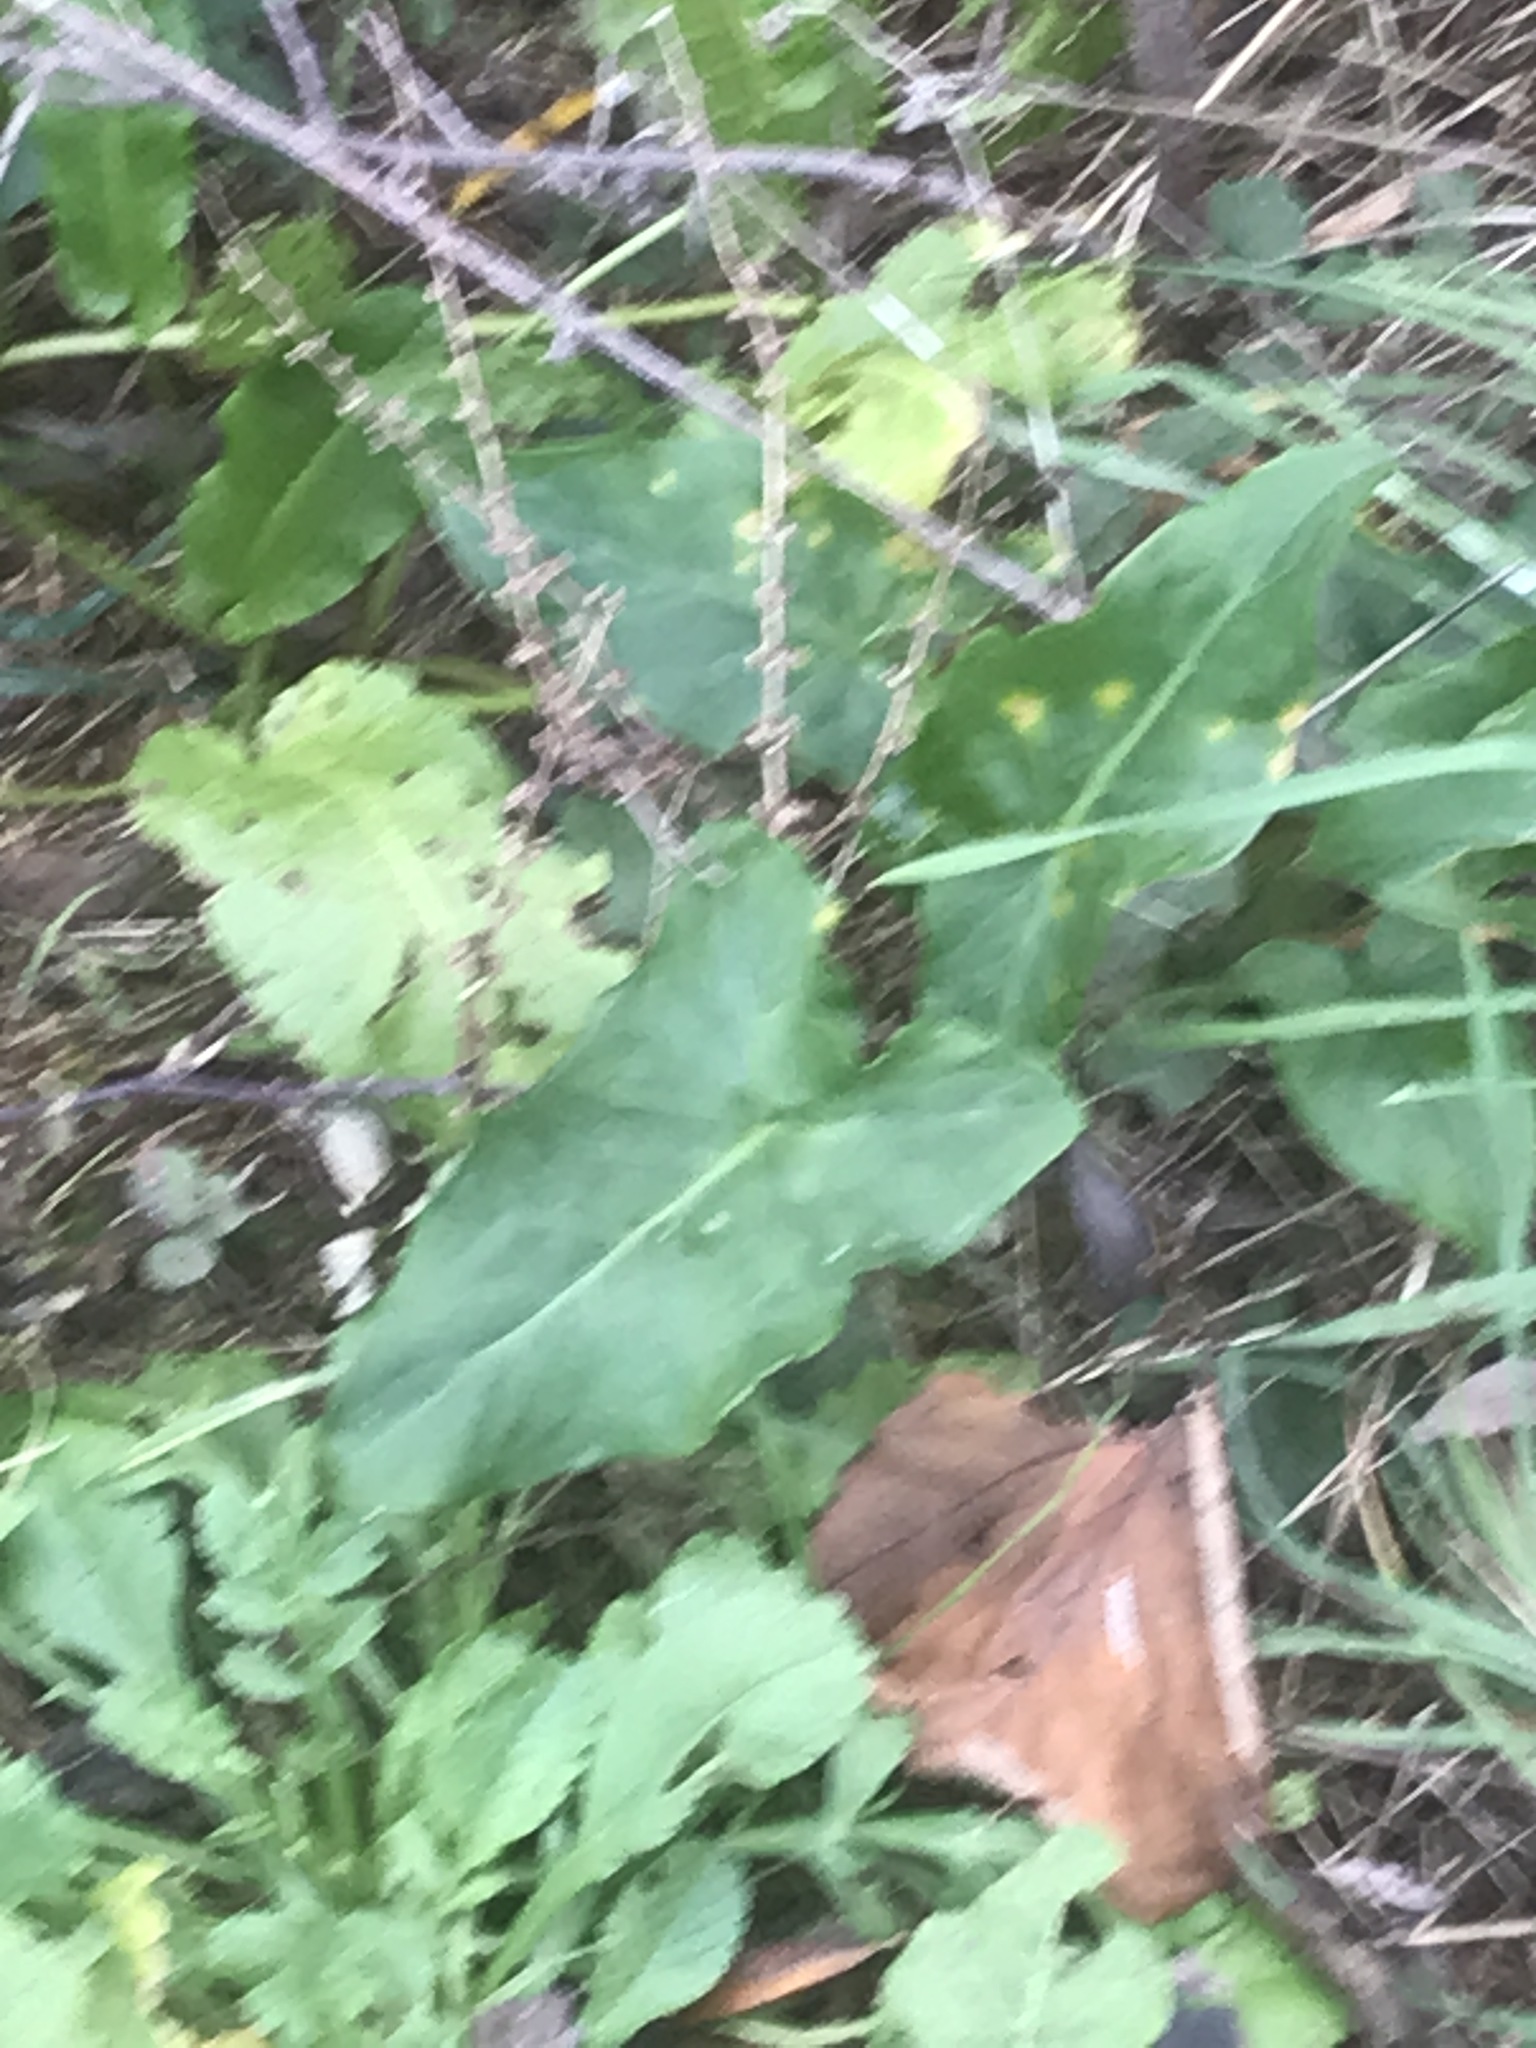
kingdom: Plantae
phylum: Tracheophyta
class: Liliopsida
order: Alismatales
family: Araceae
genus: Arum
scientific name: Arum italicum
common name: Italian lords-and-ladies
